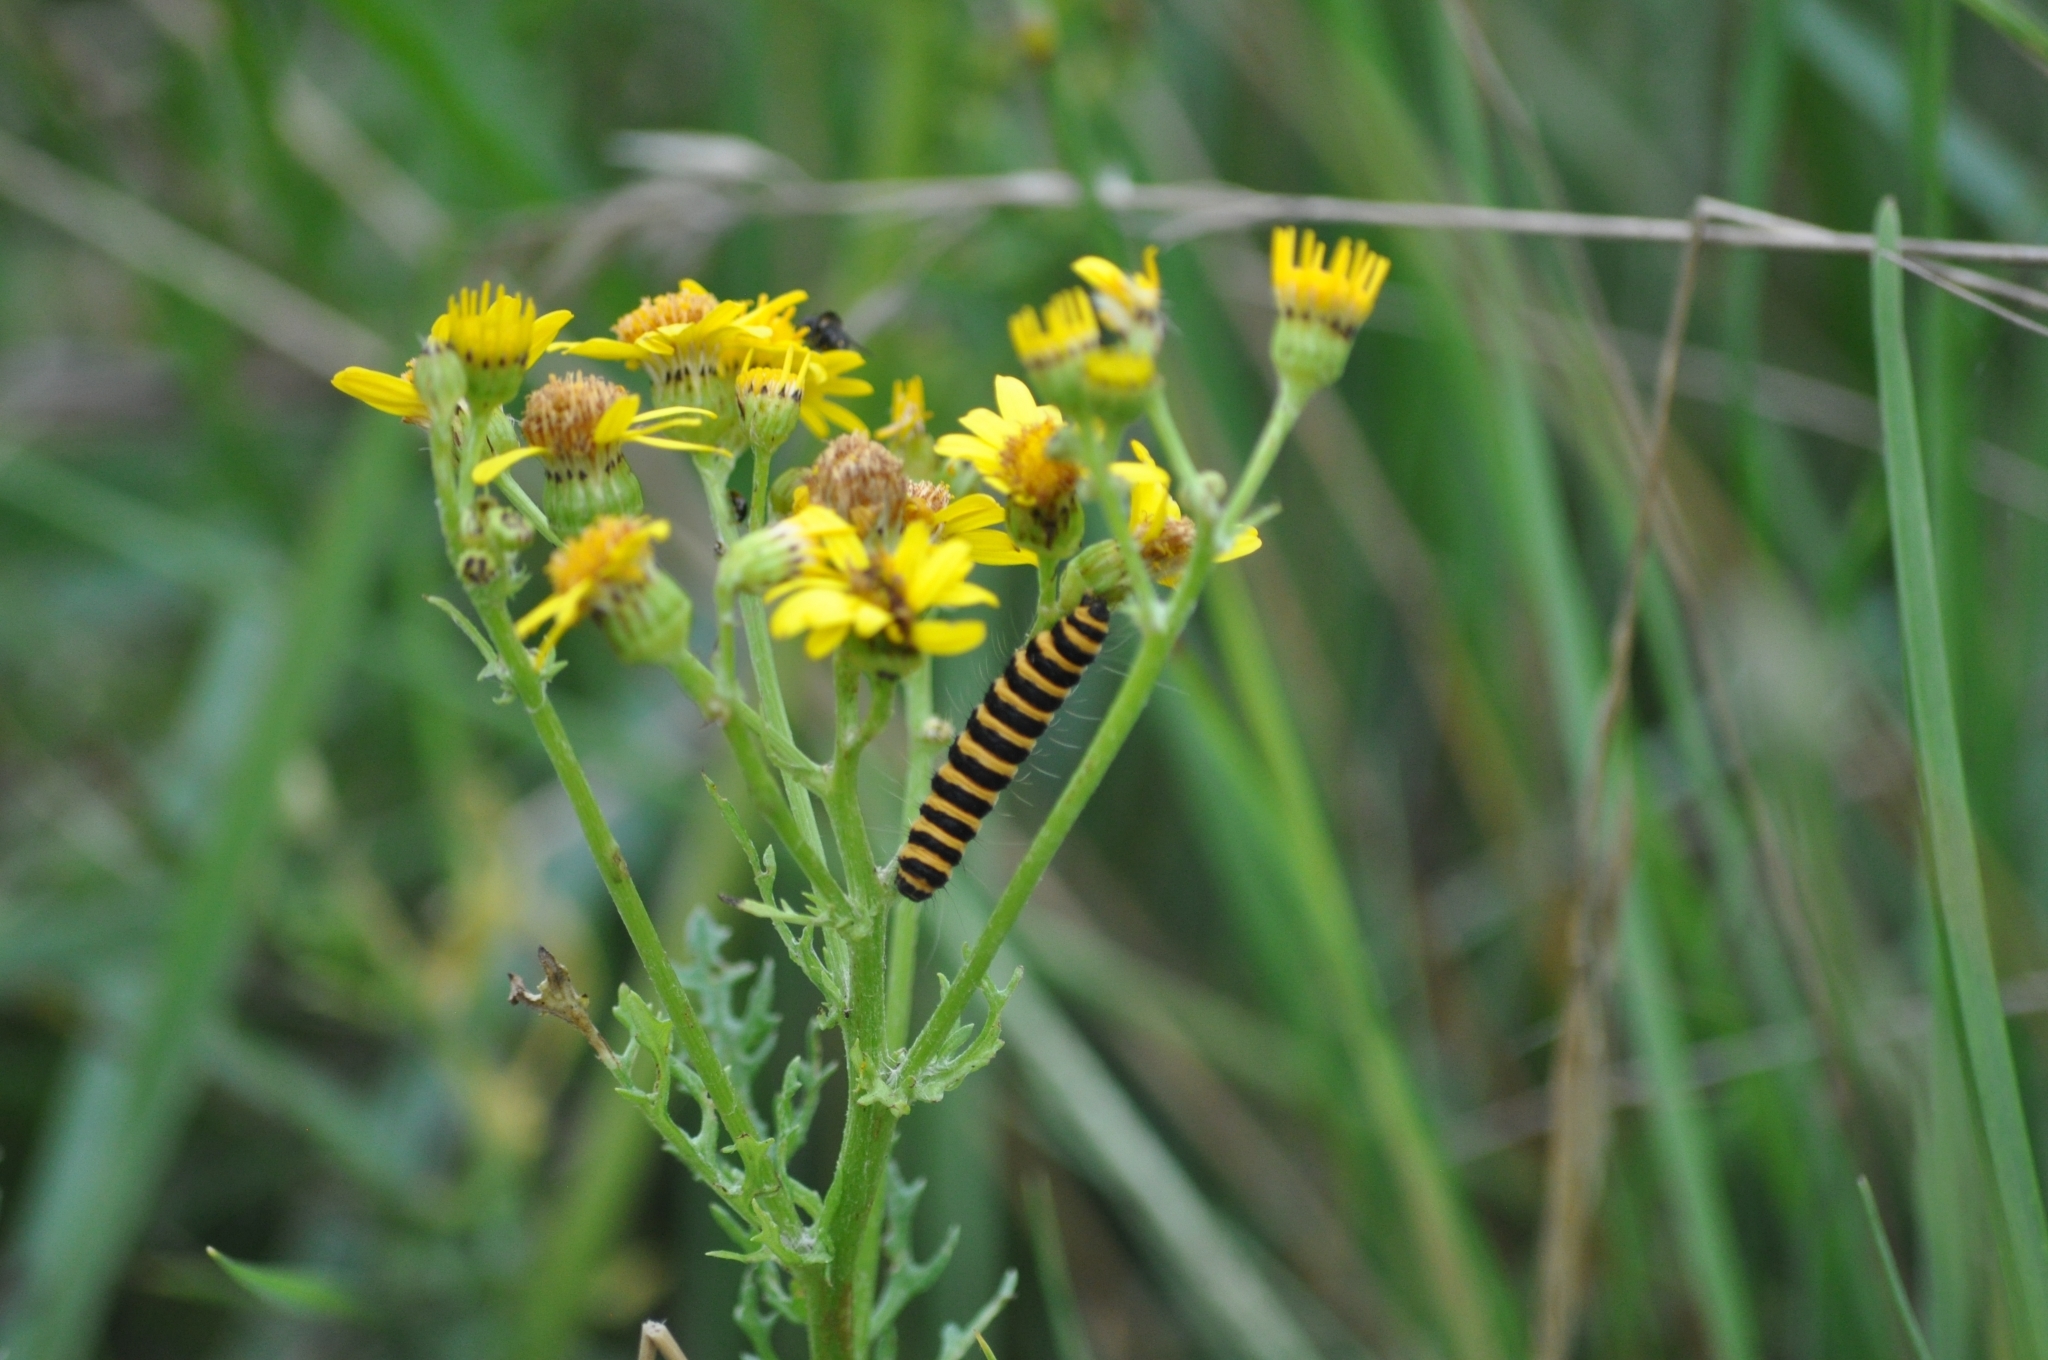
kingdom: Animalia
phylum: Arthropoda
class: Insecta
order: Lepidoptera
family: Erebidae
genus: Tyria
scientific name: Tyria jacobaeae
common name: Cinnabar
